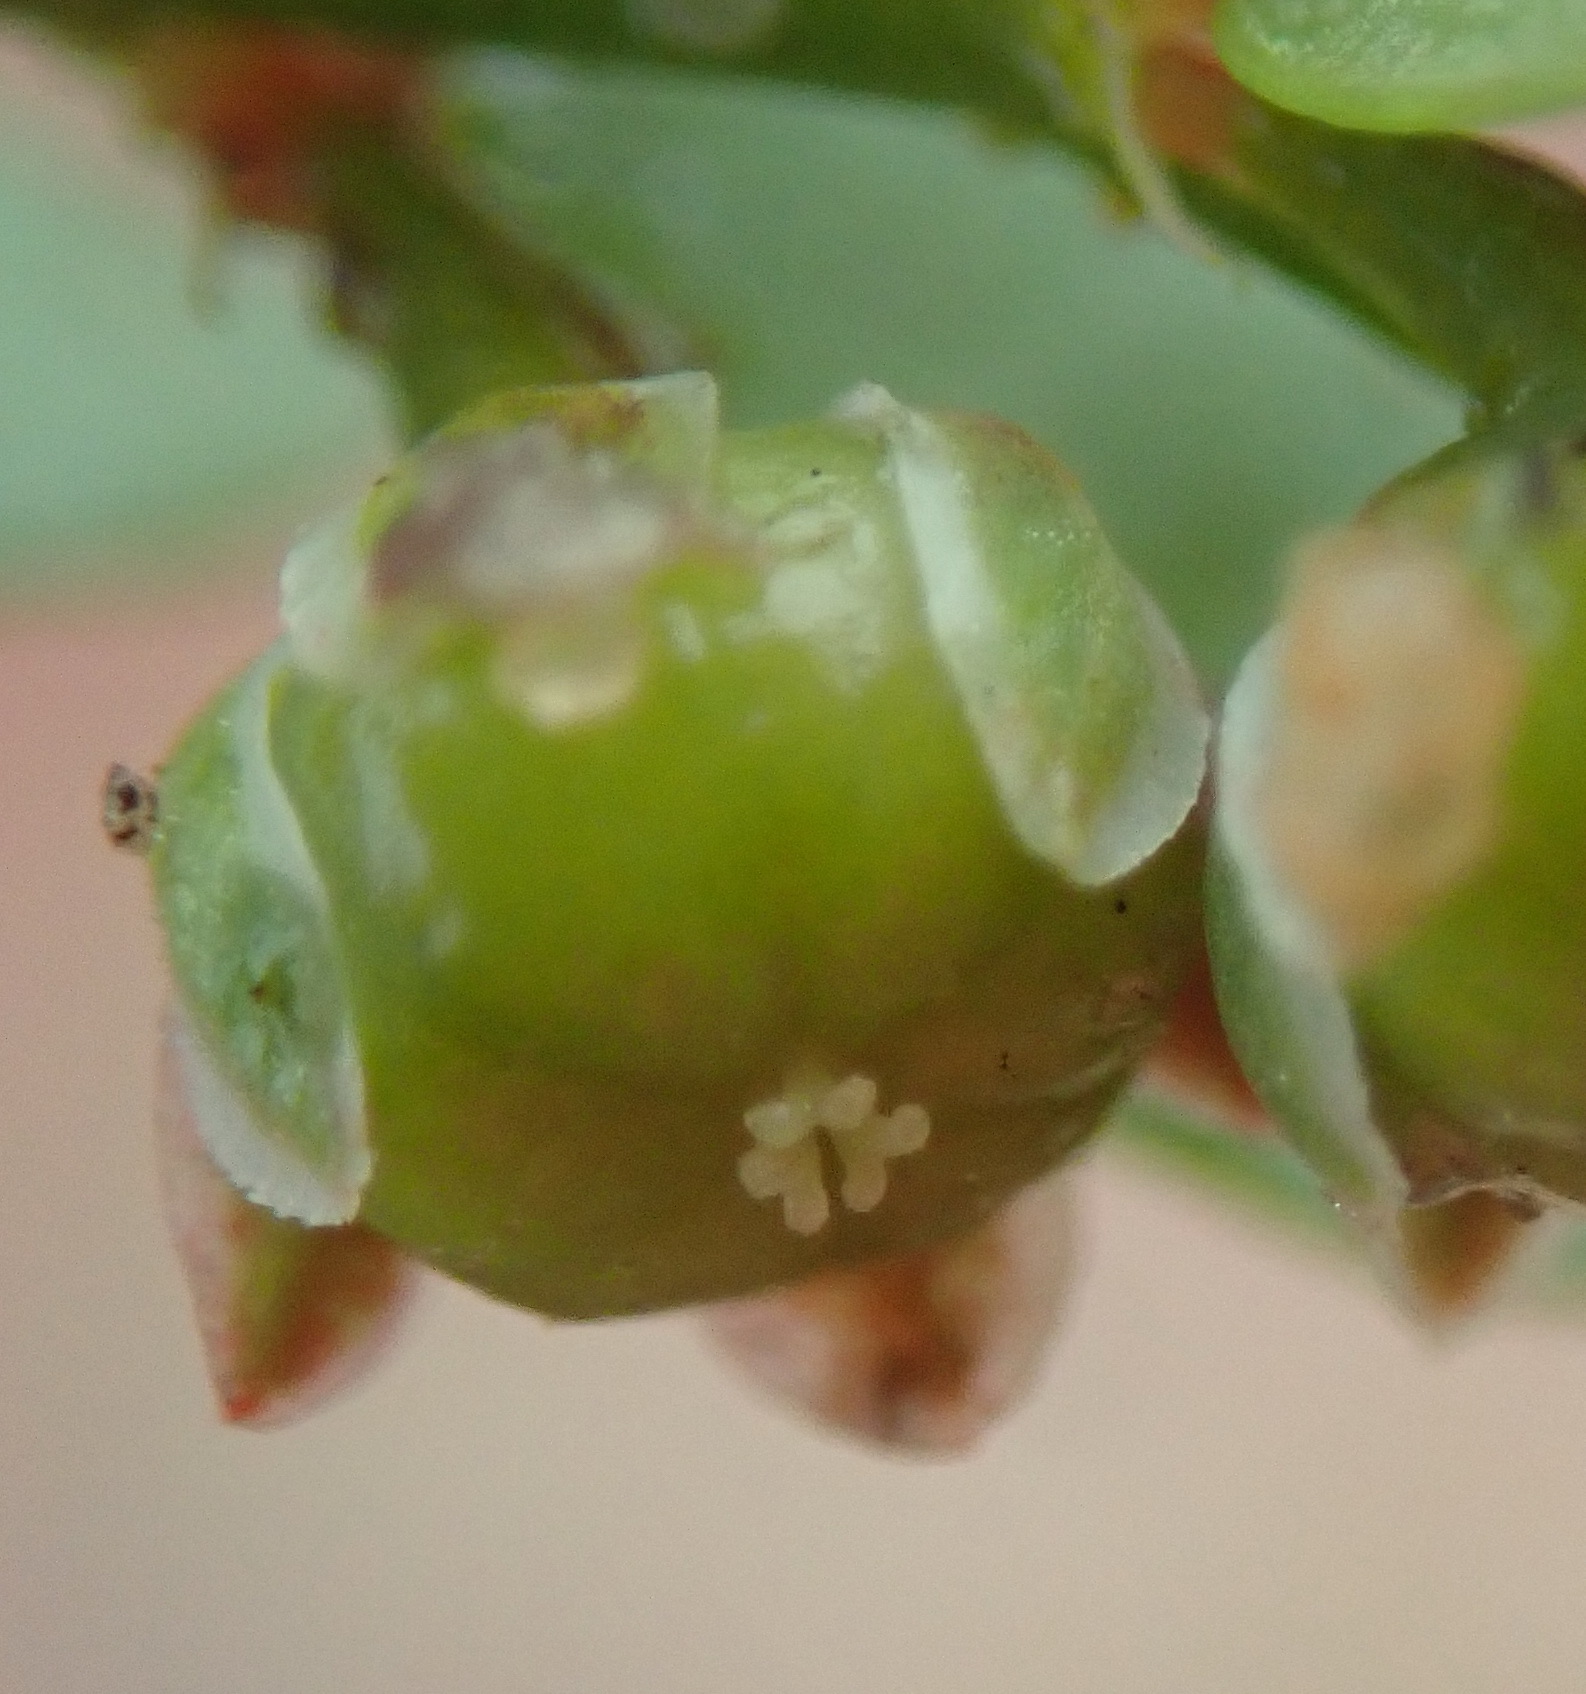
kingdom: Plantae
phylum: Tracheophyta
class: Magnoliopsida
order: Malpighiales
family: Phyllanthaceae
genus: Phyllanthus
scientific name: Phyllanthus
